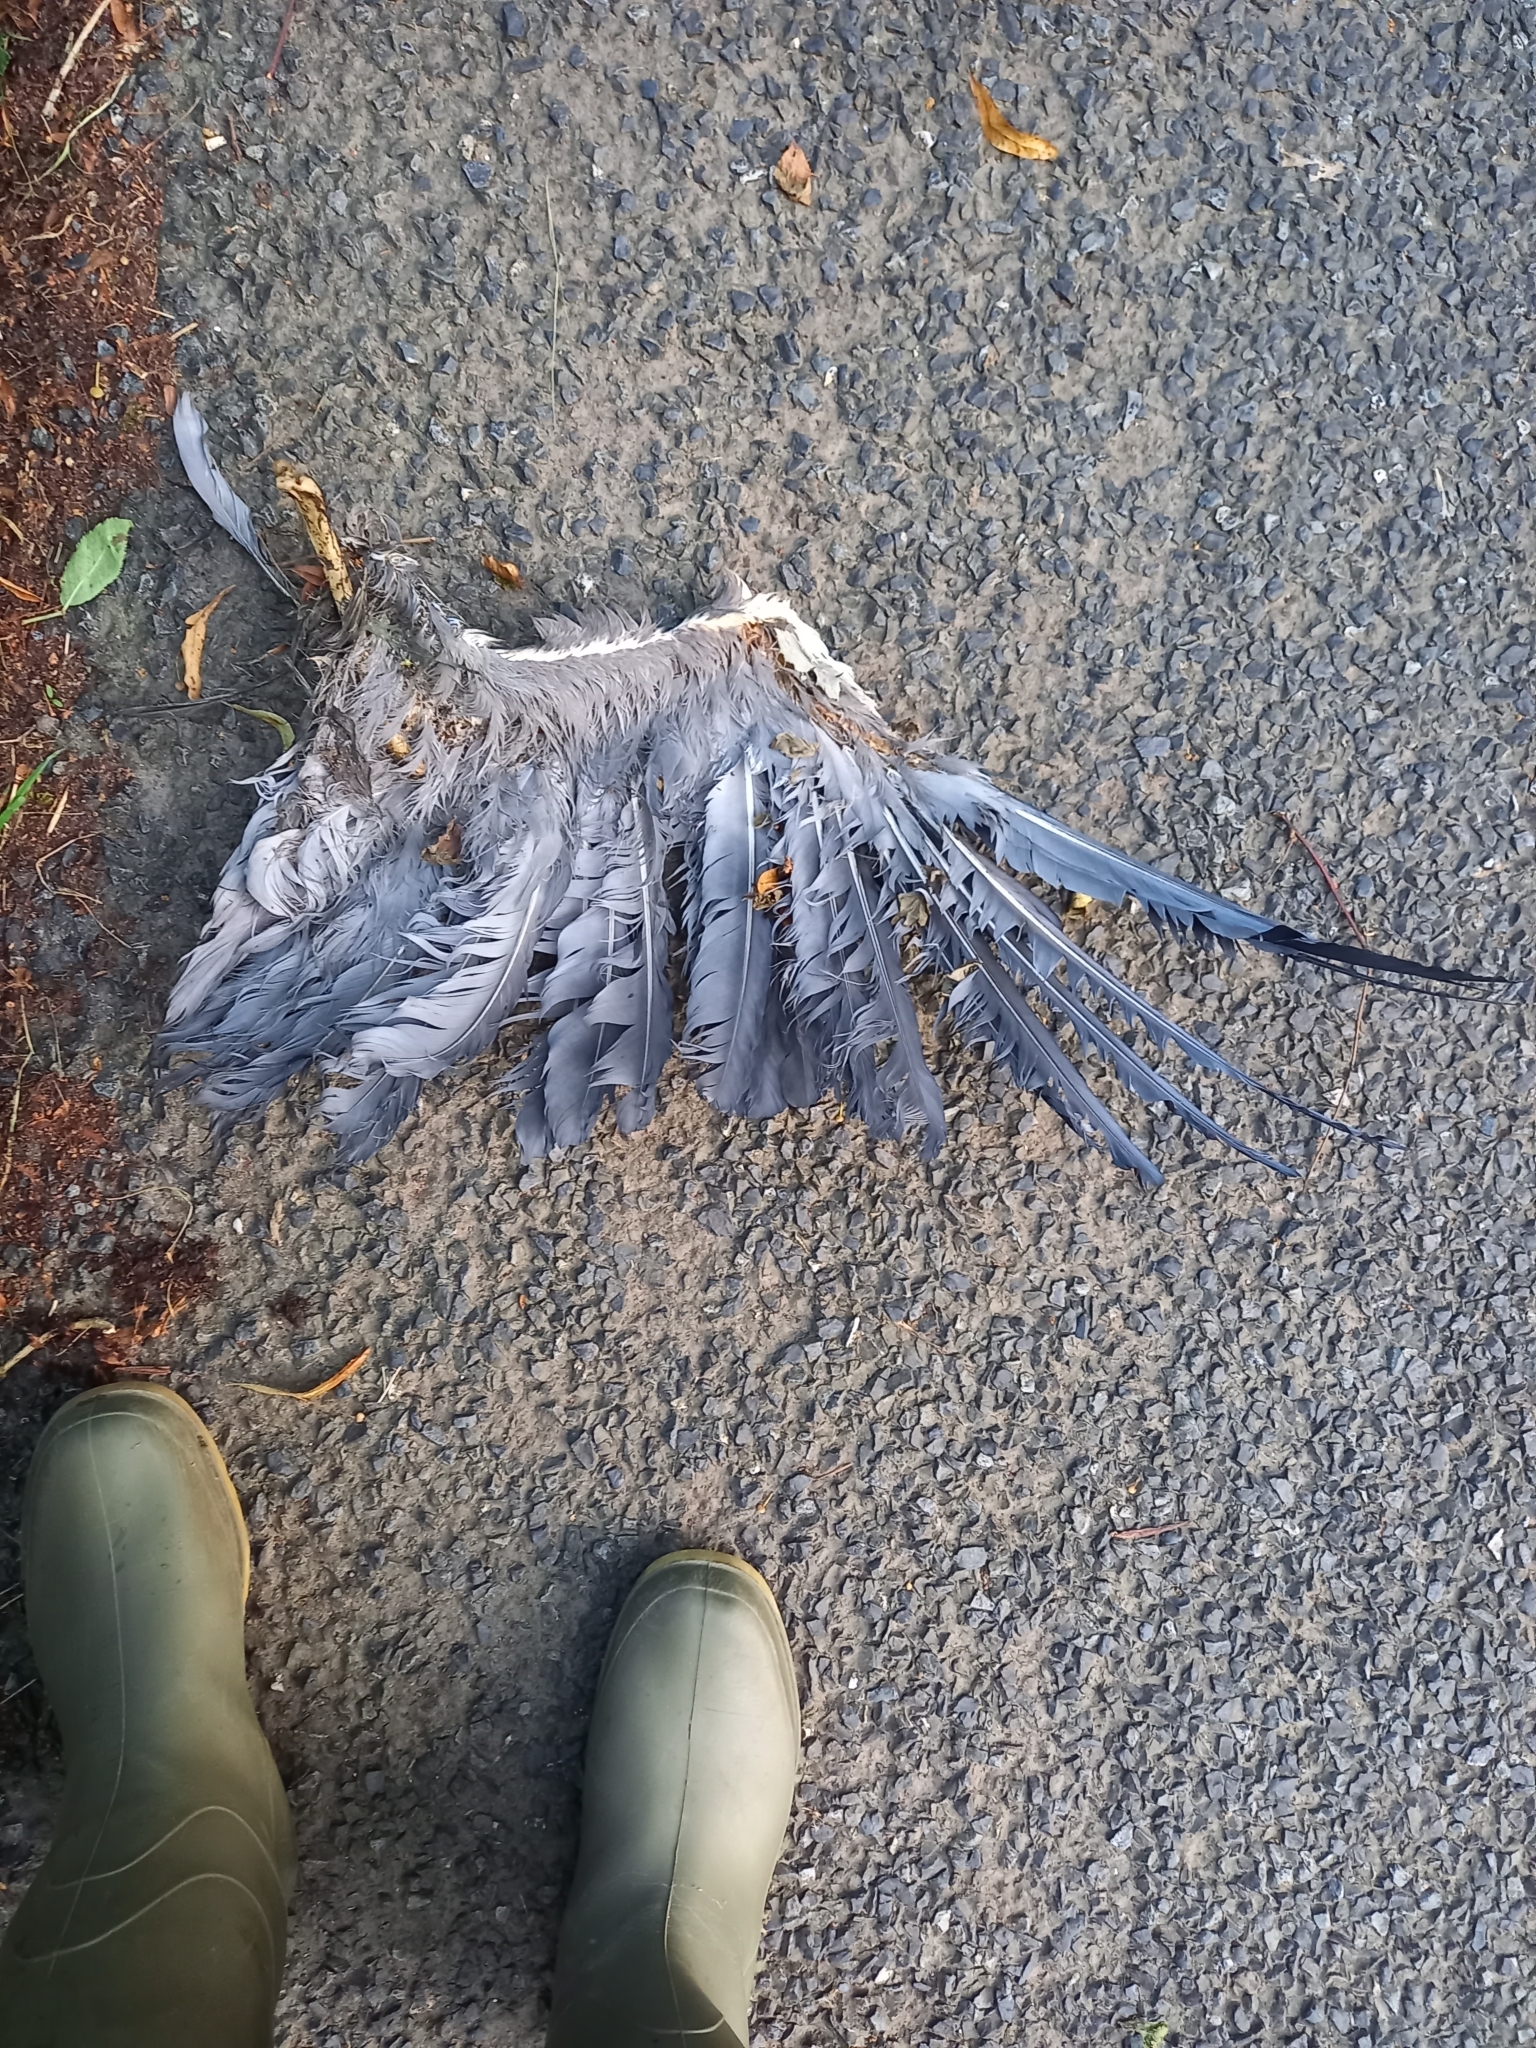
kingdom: Animalia
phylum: Chordata
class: Aves
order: Pelecaniformes
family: Ardeidae
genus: Ardea
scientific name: Ardea cinerea
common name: Grey heron
